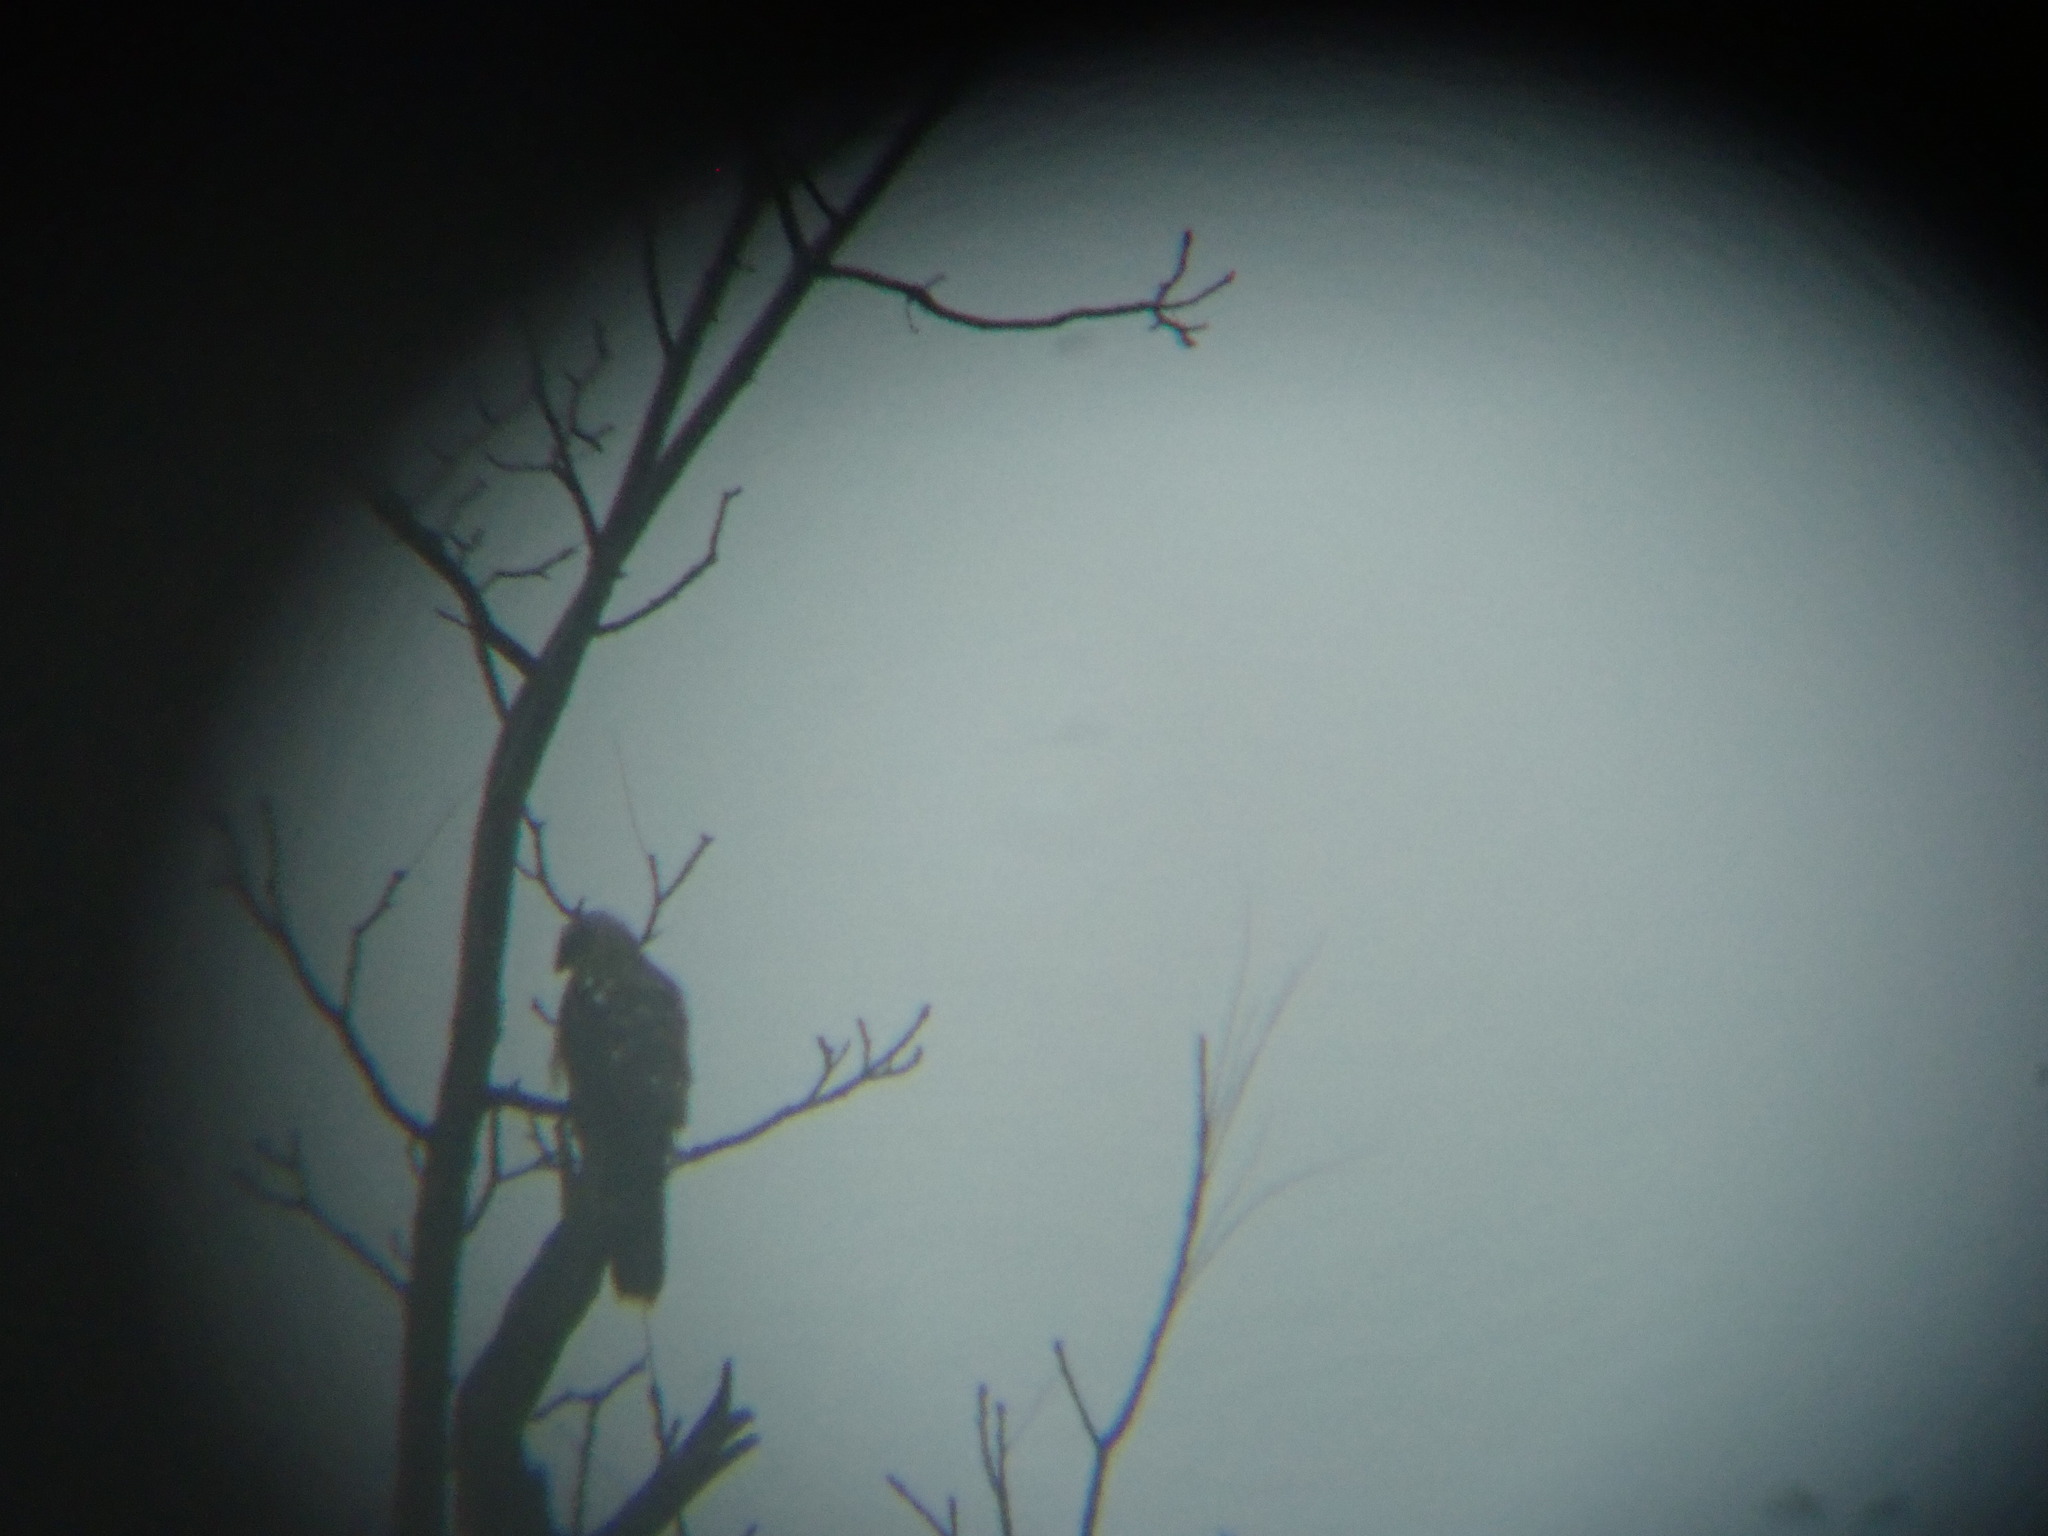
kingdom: Animalia
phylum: Chordata
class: Aves
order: Accipitriformes
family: Accipitridae
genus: Accipiter
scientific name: Accipiter
